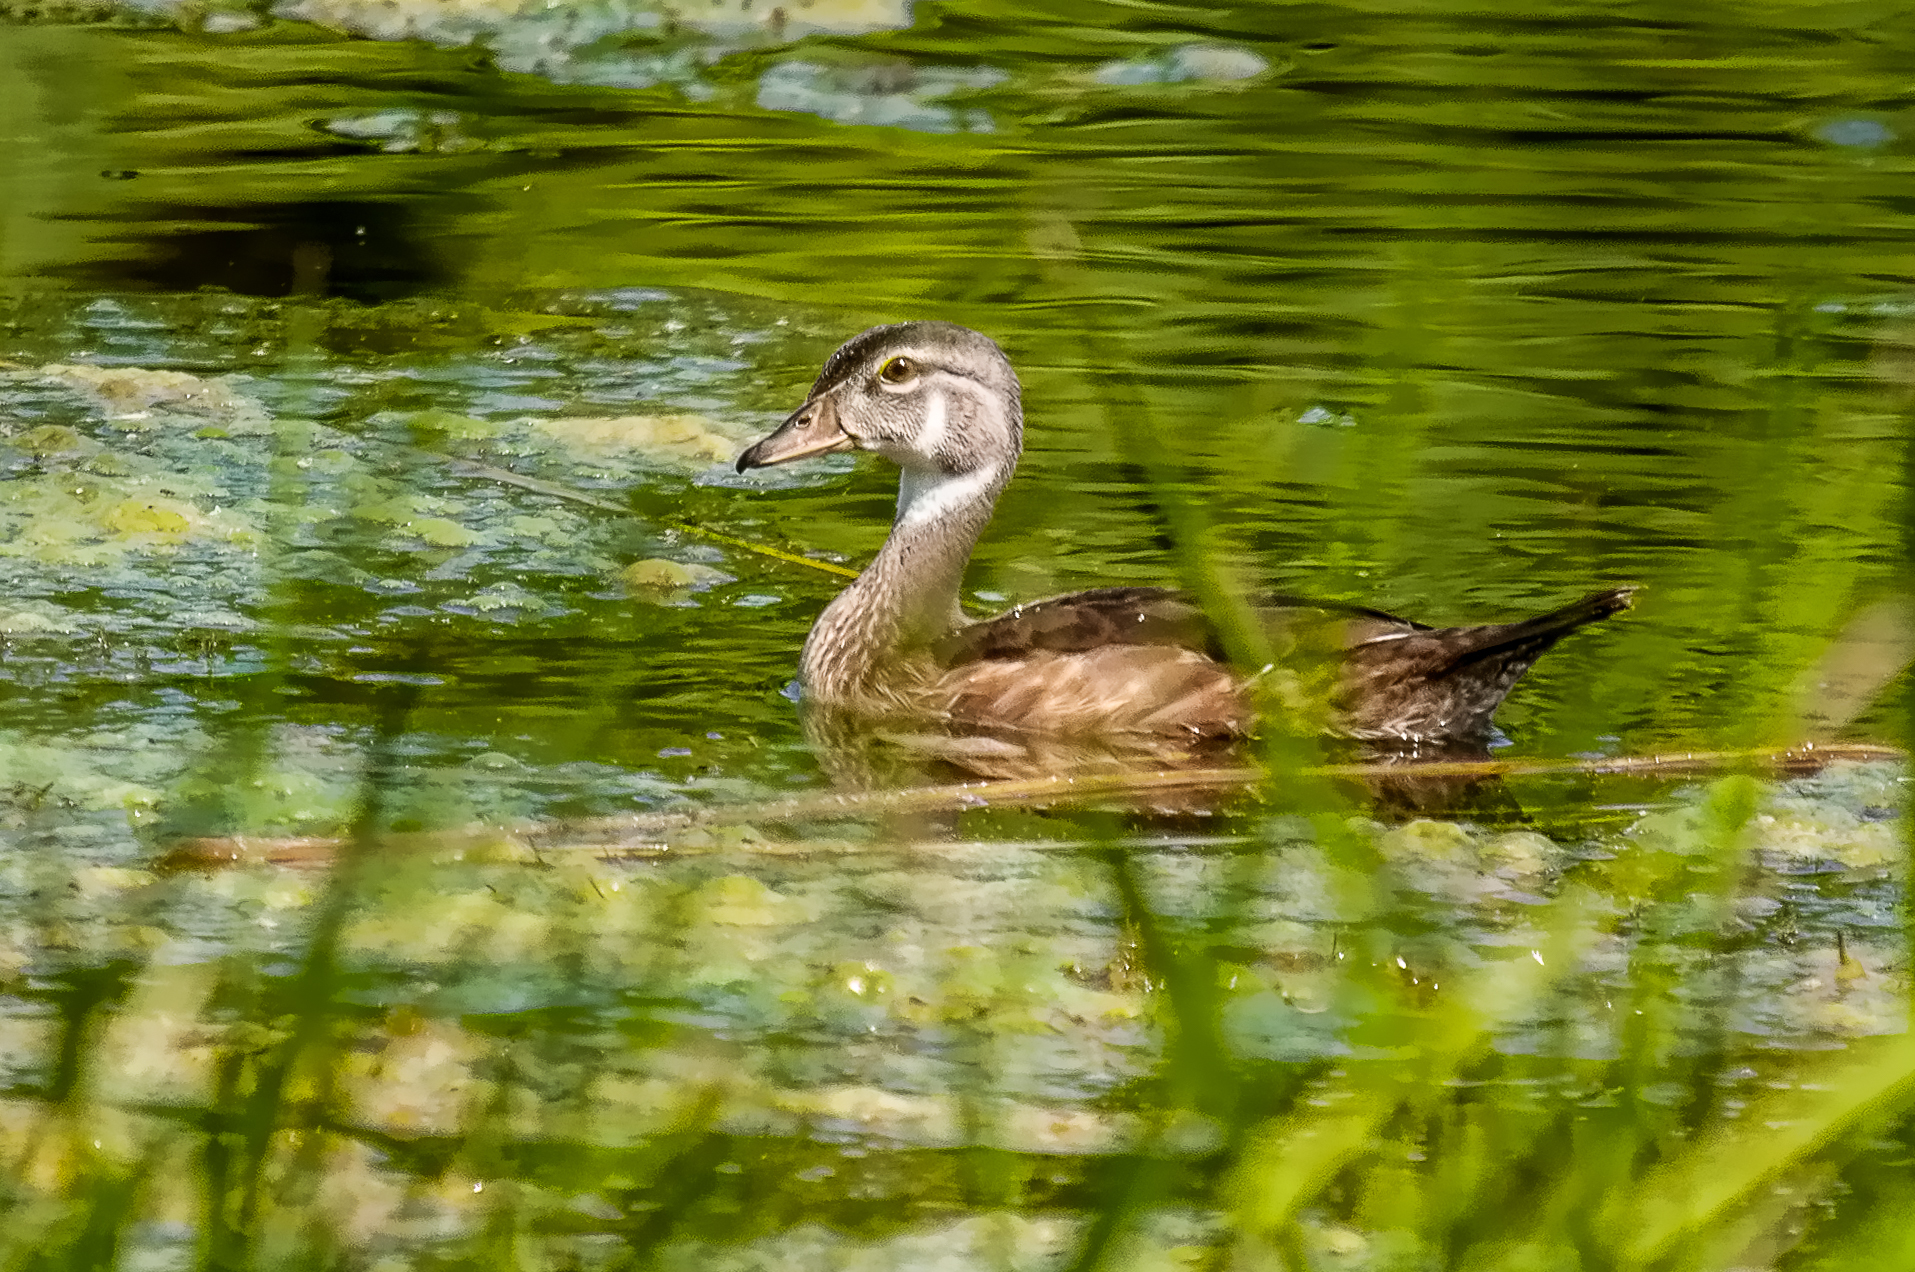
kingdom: Animalia
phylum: Chordata
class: Aves
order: Anseriformes
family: Anatidae
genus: Aix
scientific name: Aix sponsa
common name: Wood duck
